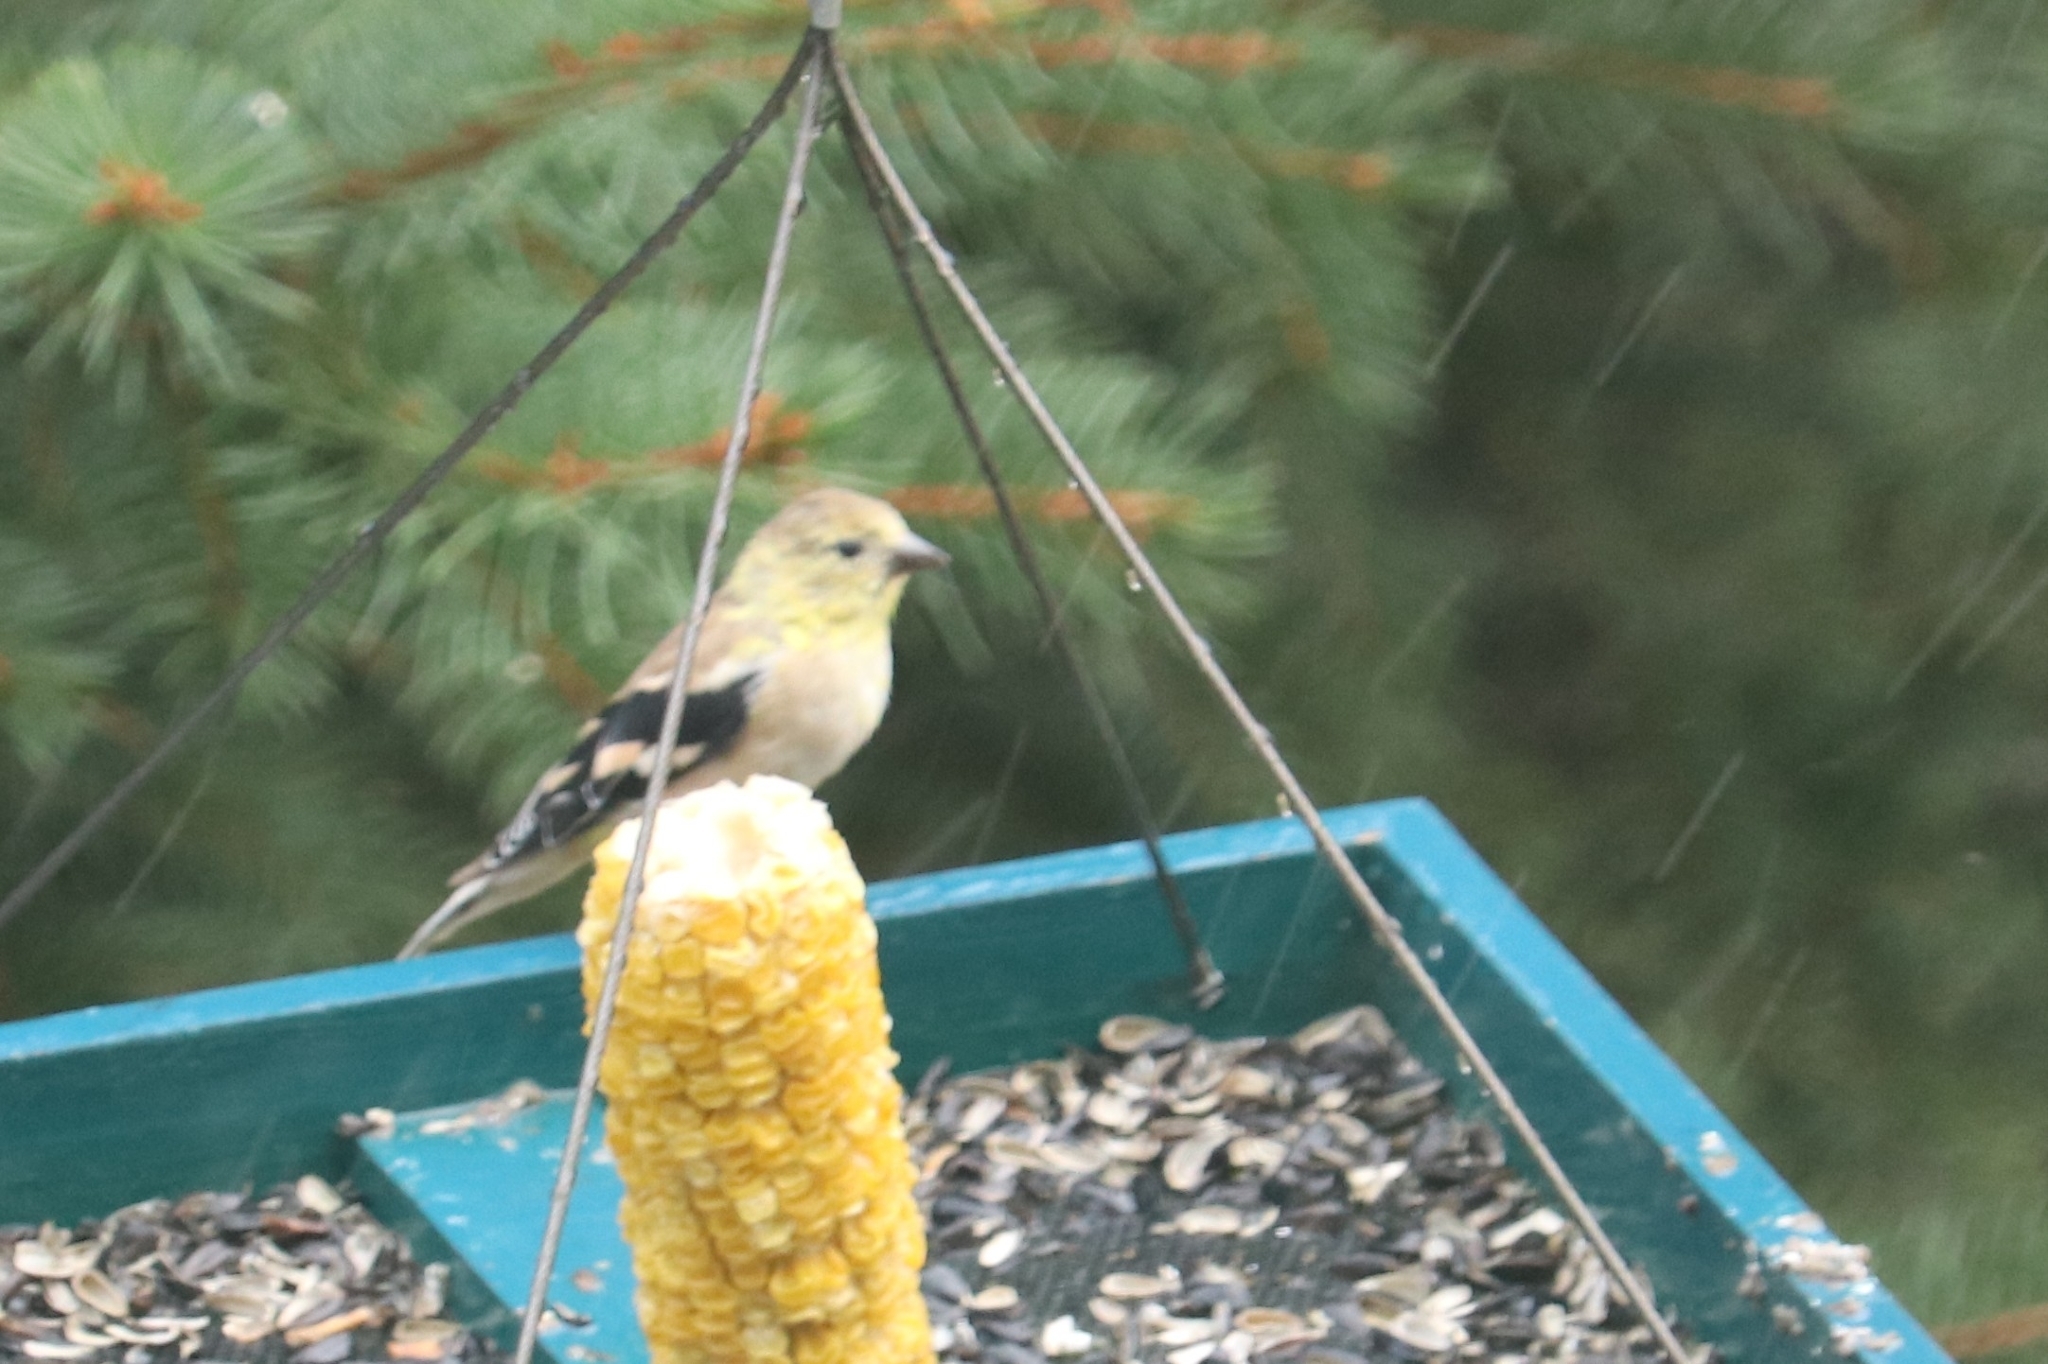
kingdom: Animalia
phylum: Chordata
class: Aves
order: Passeriformes
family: Fringillidae
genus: Spinus
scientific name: Spinus tristis
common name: American goldfinch
